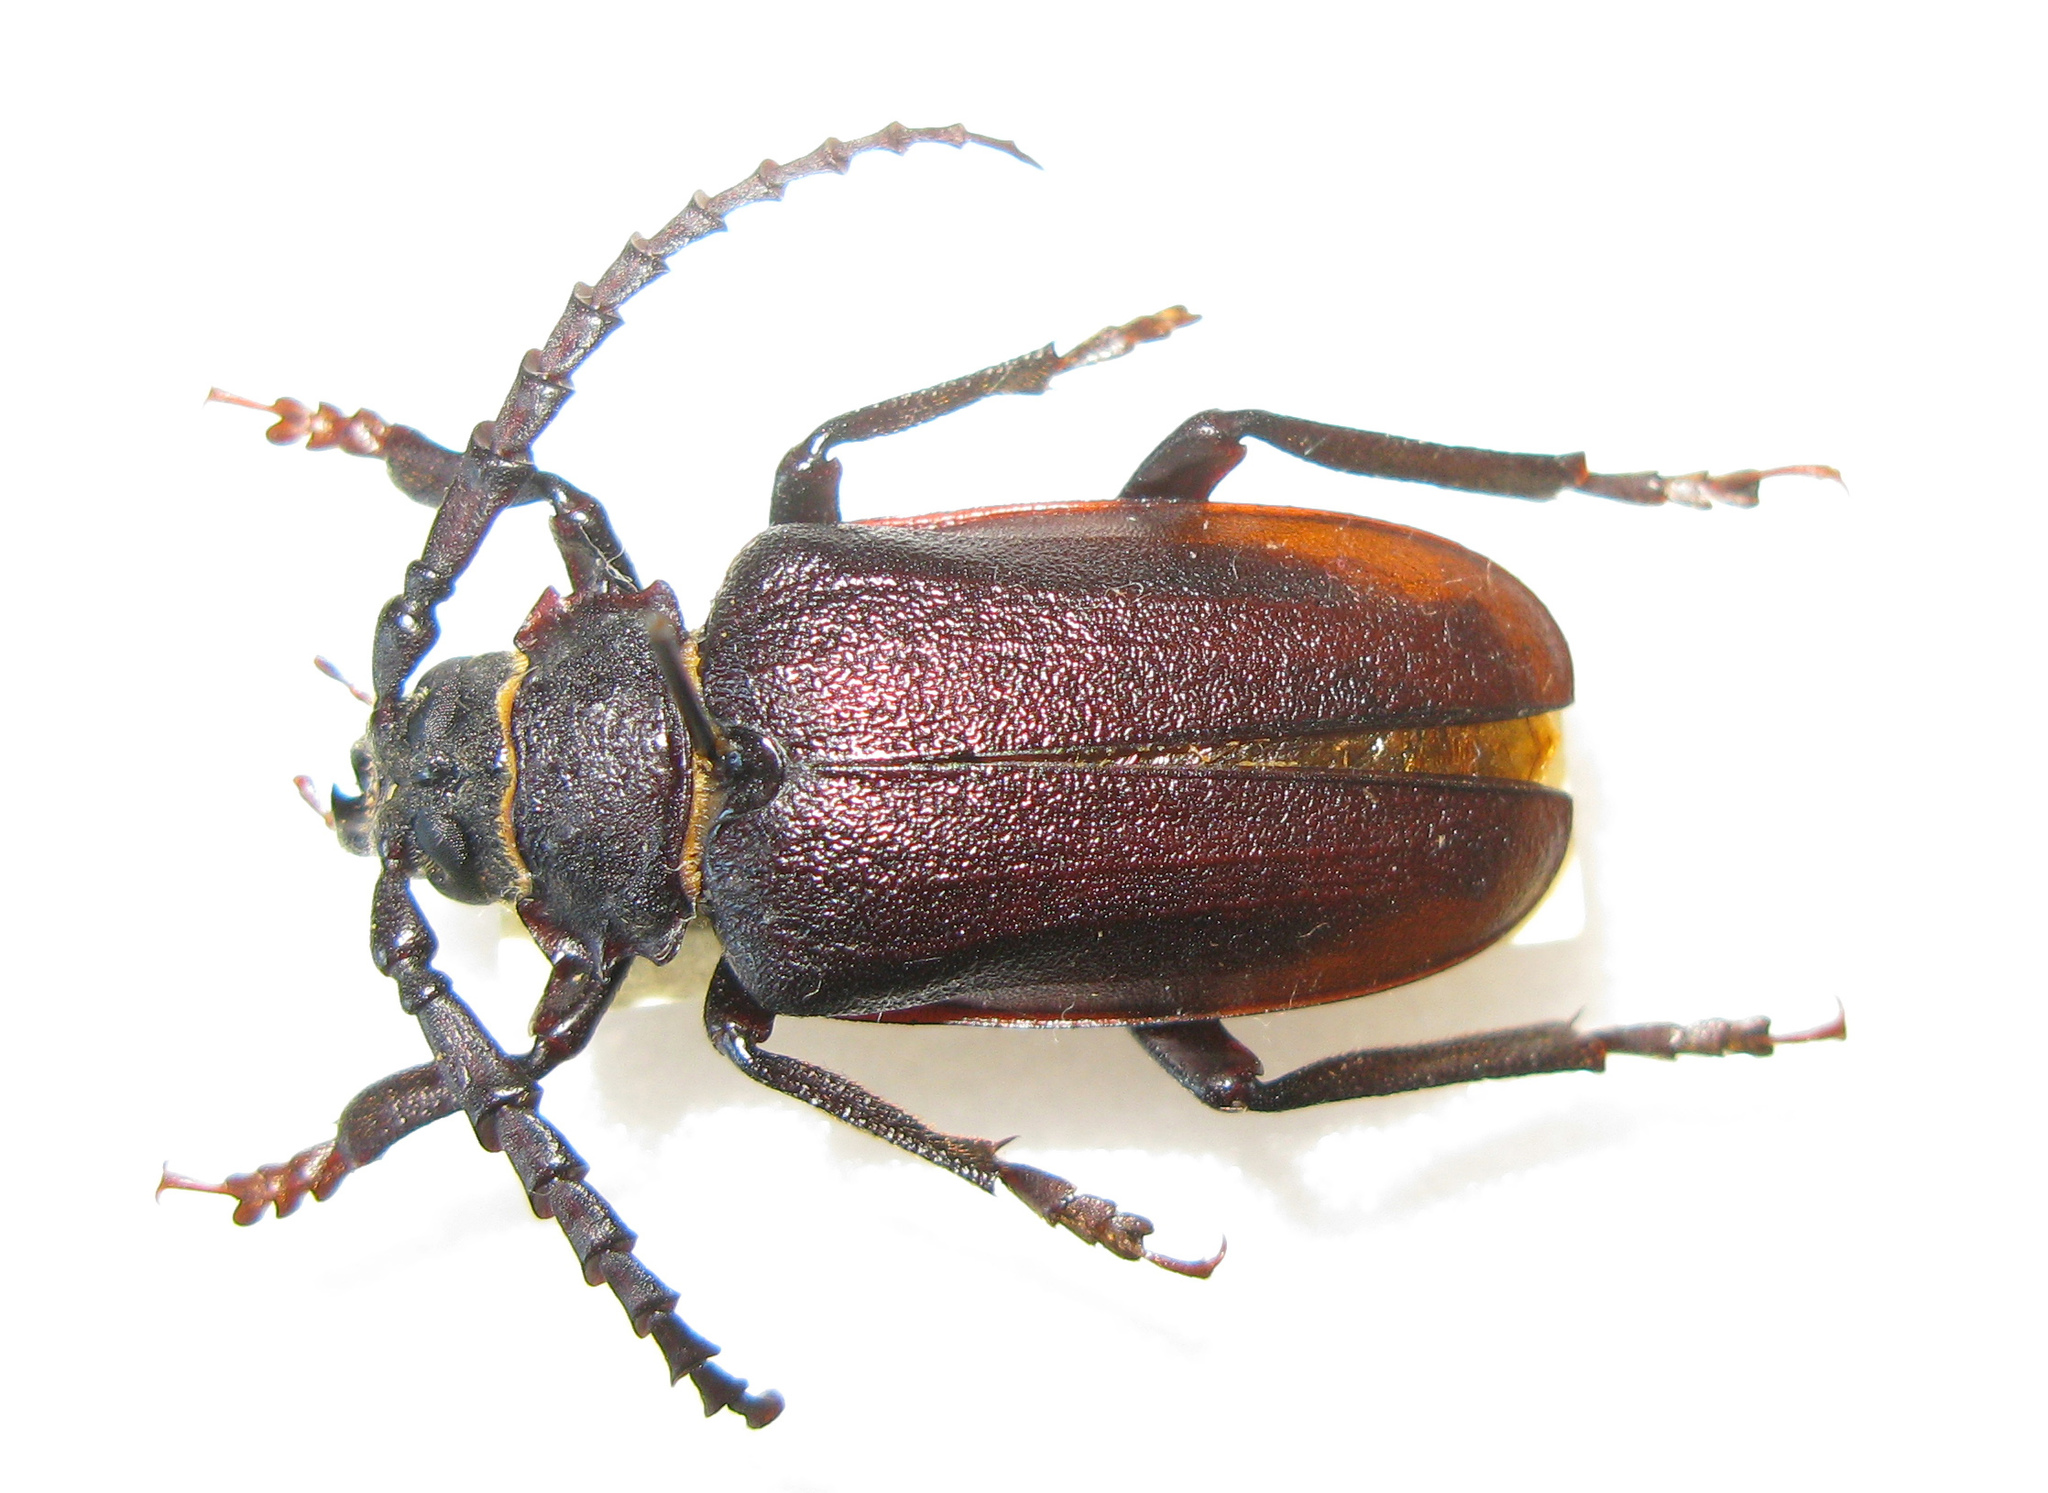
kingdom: Animalia
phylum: Arthropoda
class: Insecta
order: Coleoptera
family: Cerambycidae
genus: Prionus
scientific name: Prionus coriarius
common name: Tanner beetle
